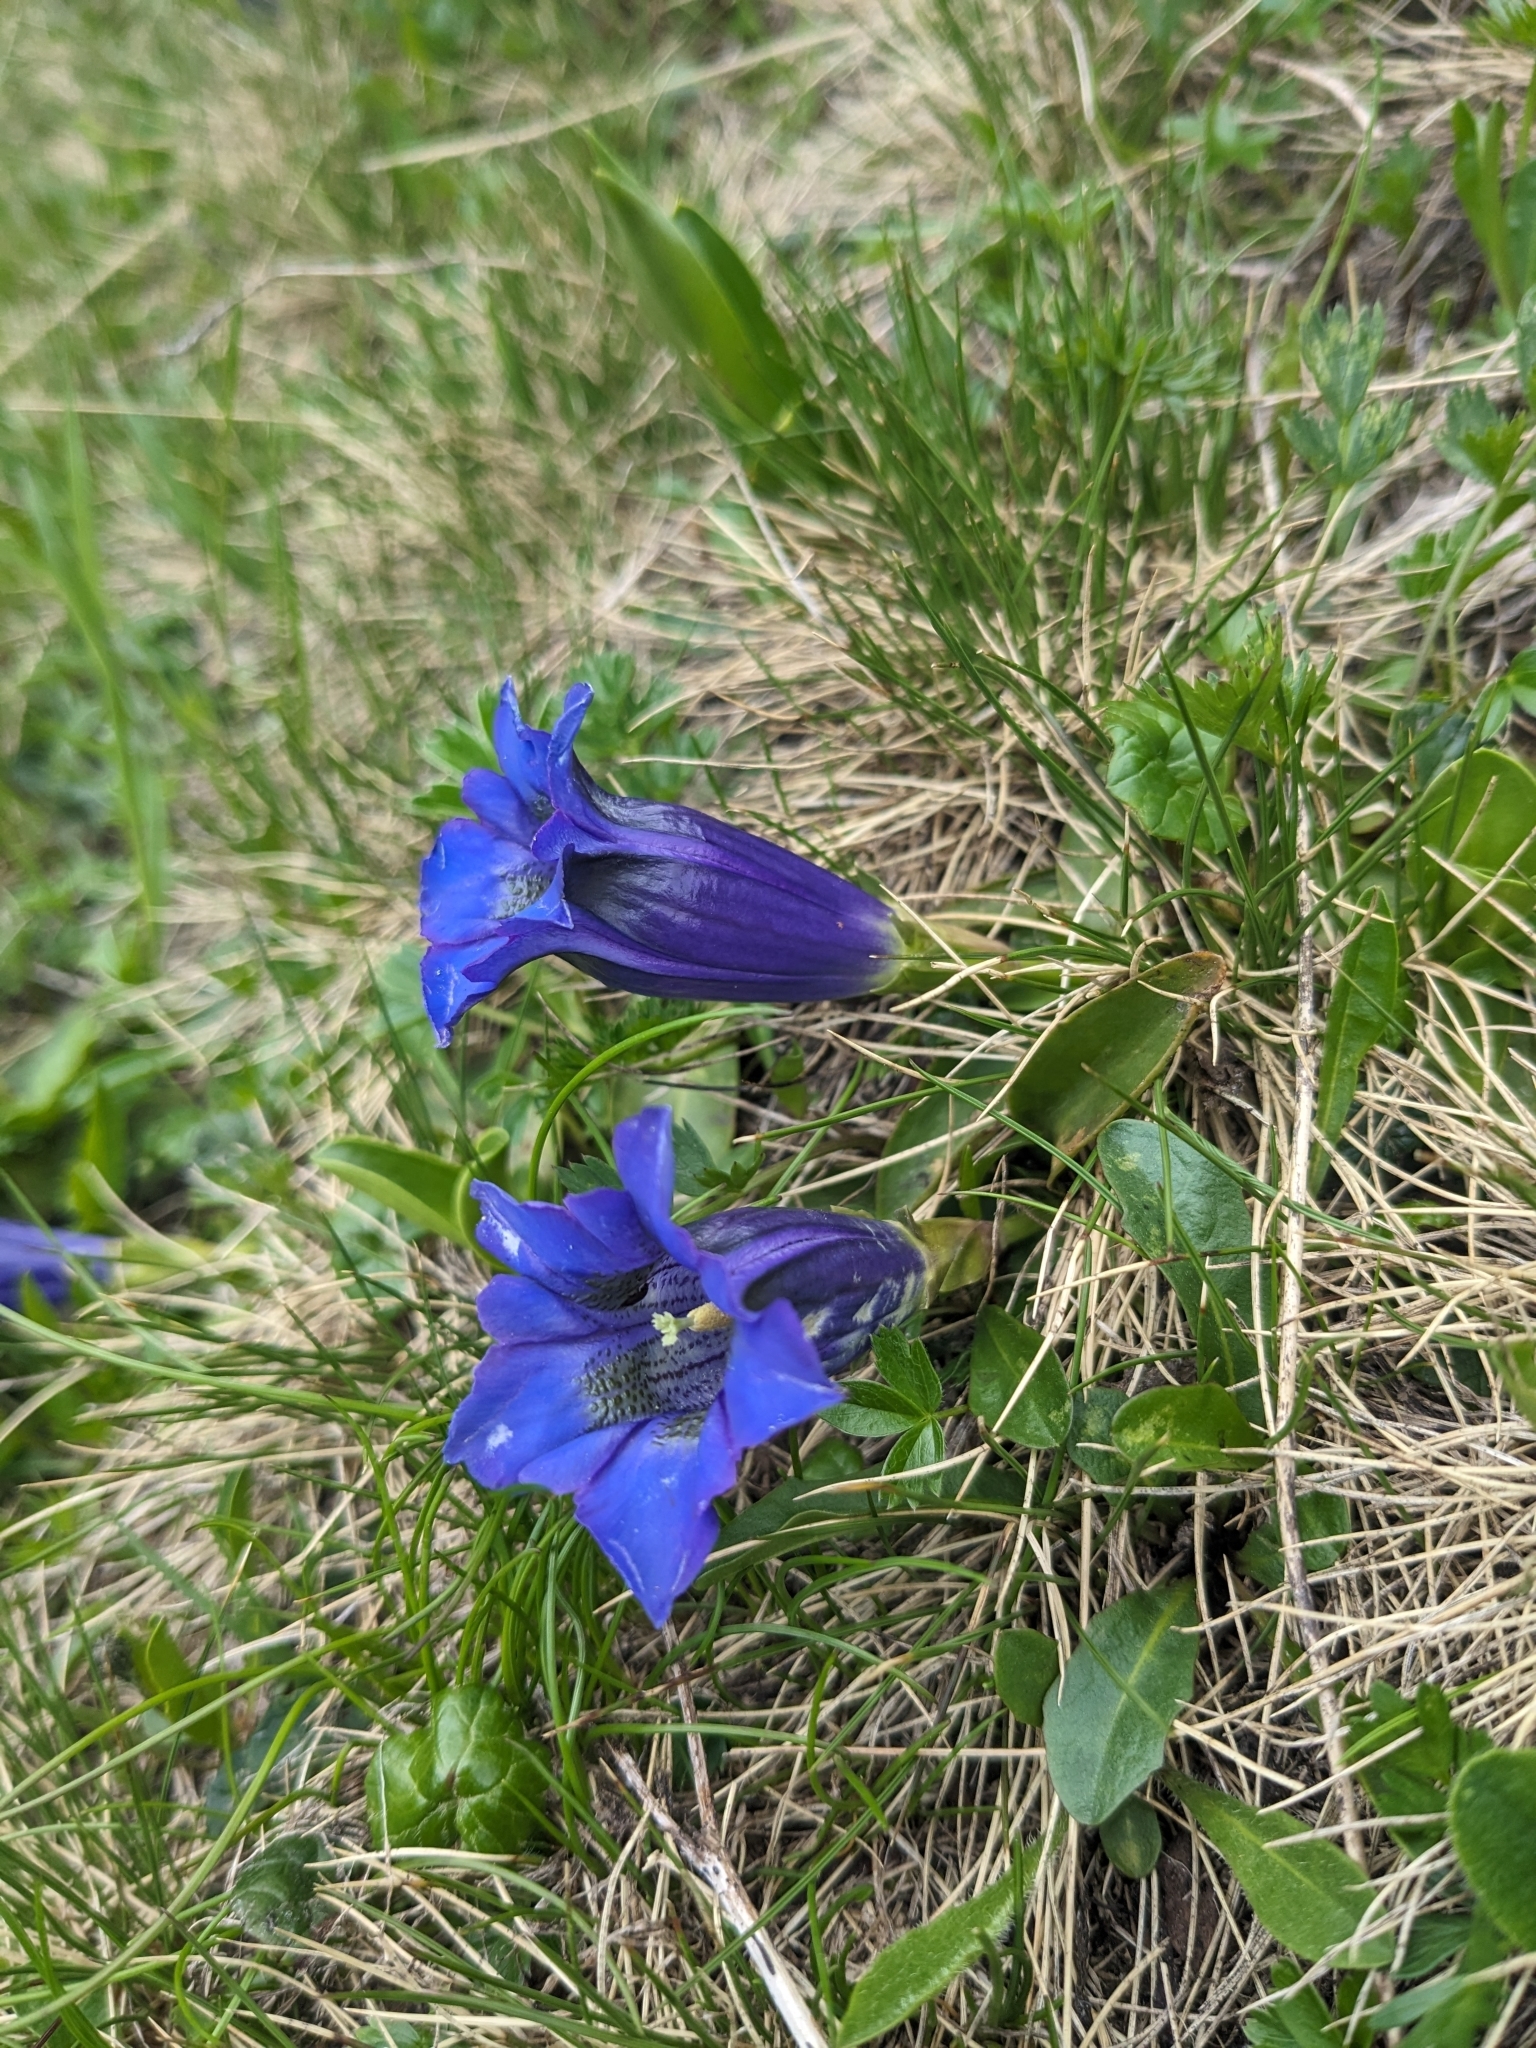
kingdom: Plantae
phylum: Tracheophyta
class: Magnoliopsida
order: Gentianales
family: Gentianaceae
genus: Gentiana
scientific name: Gentiana acaulis
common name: Trumpet gentian
